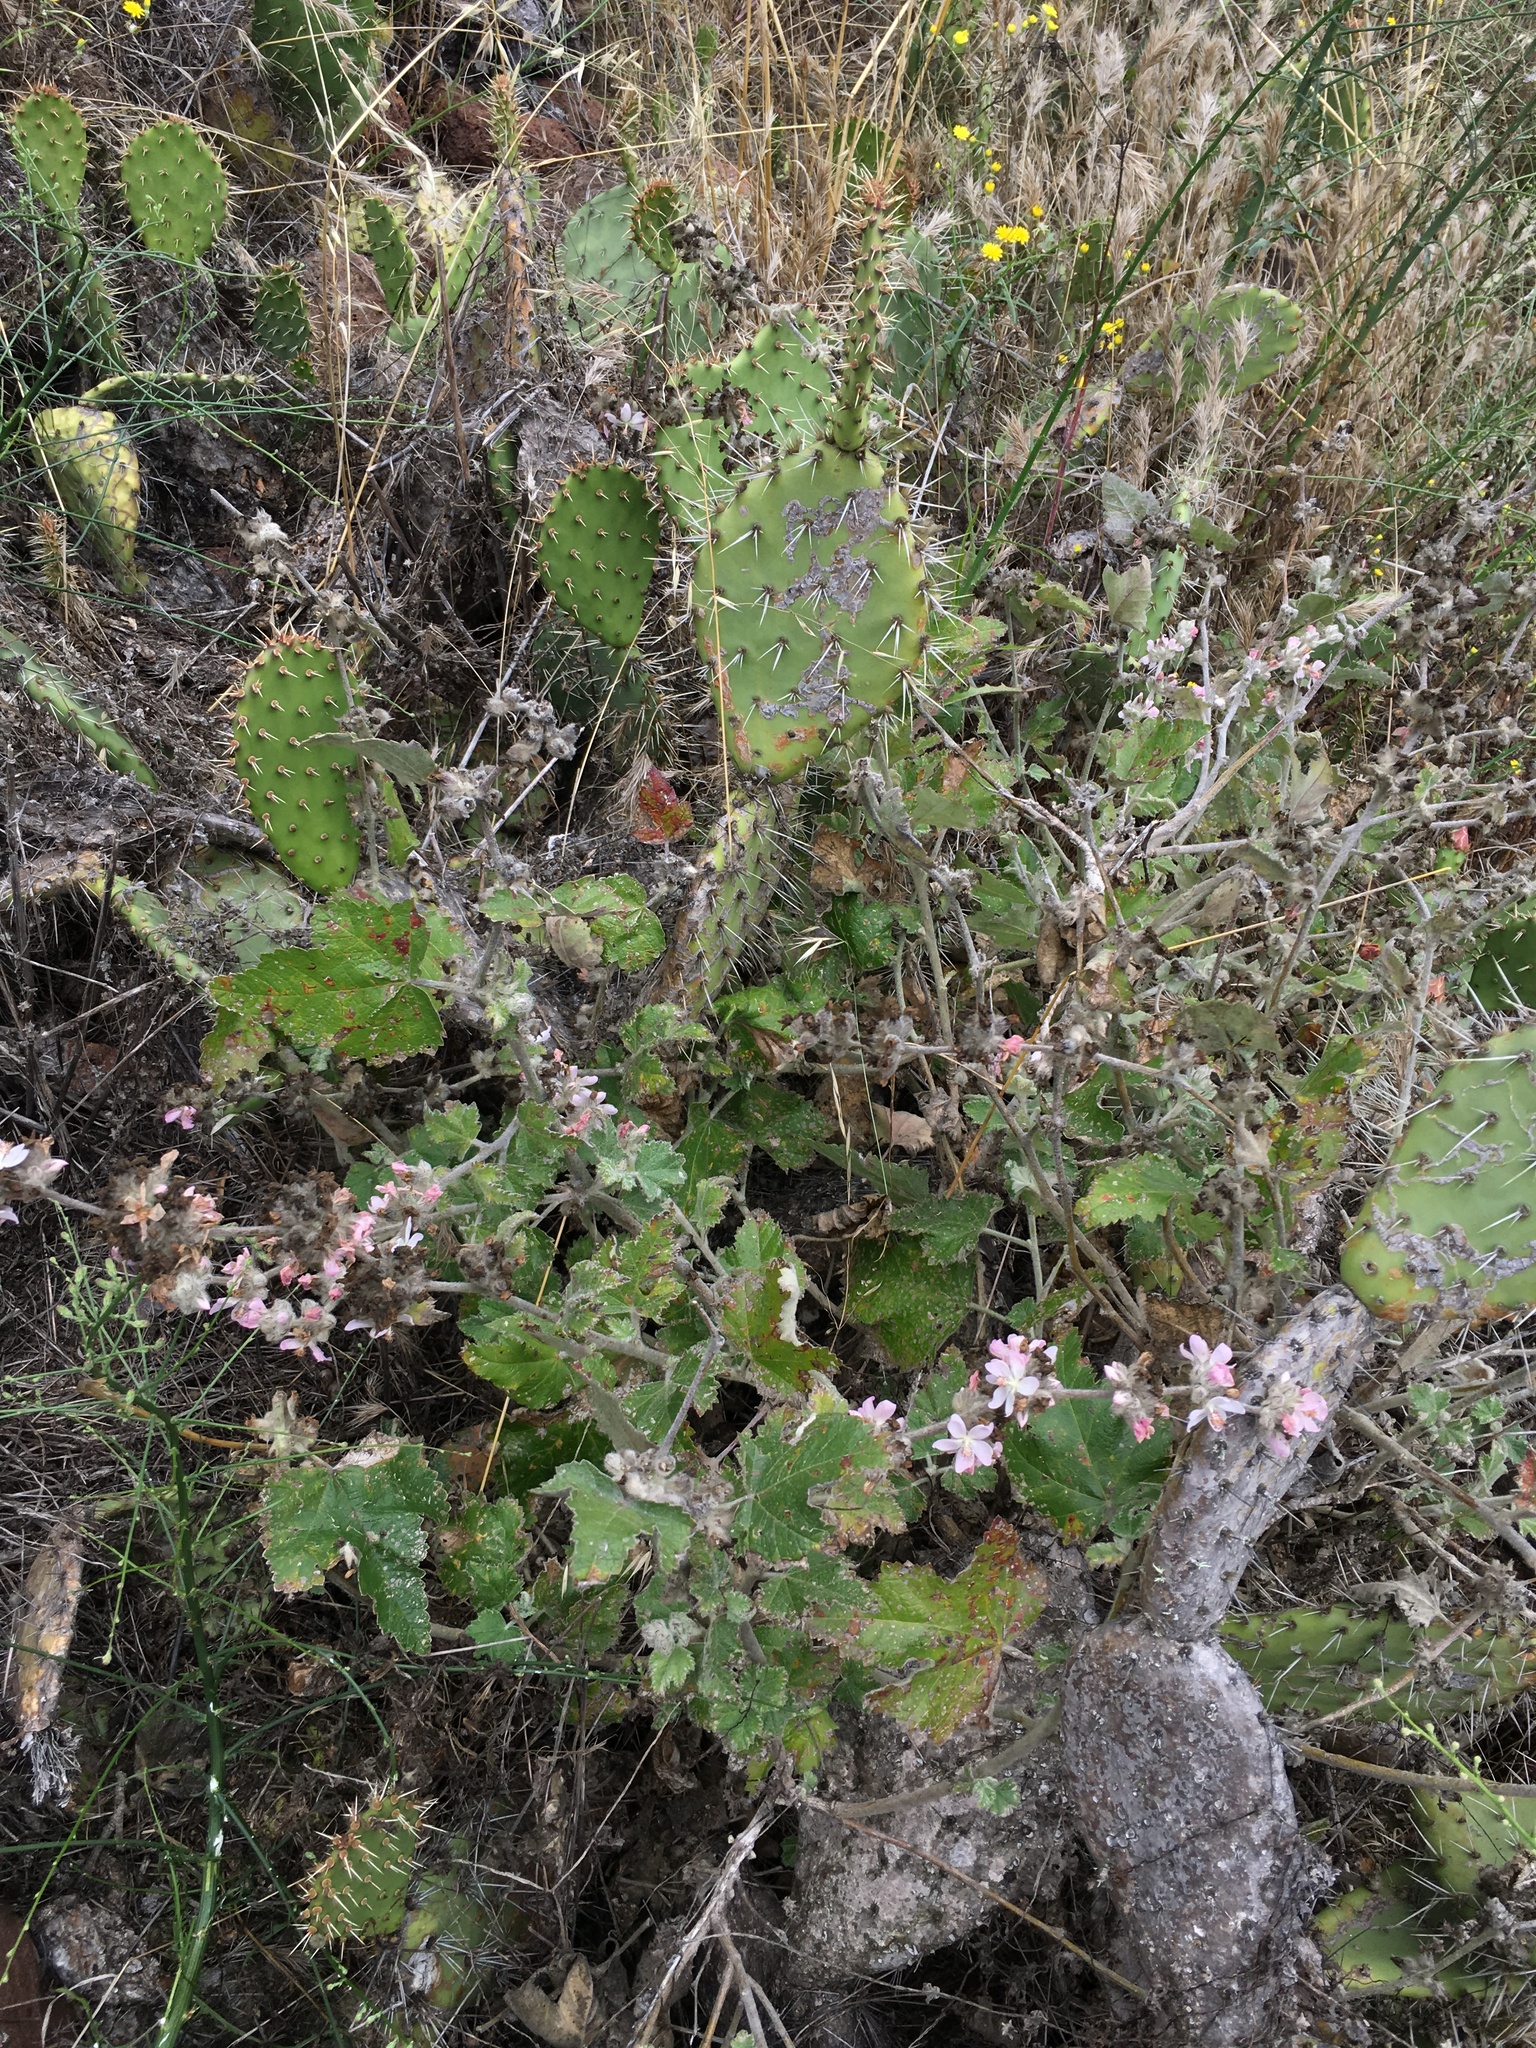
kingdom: Plantae
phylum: Tracheophyta
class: Magnoliopsida
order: Malvales
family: Malvaceae
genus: Malacothamnus
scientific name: Malacothamnus clementinus
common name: San clemente island bush-mallow
